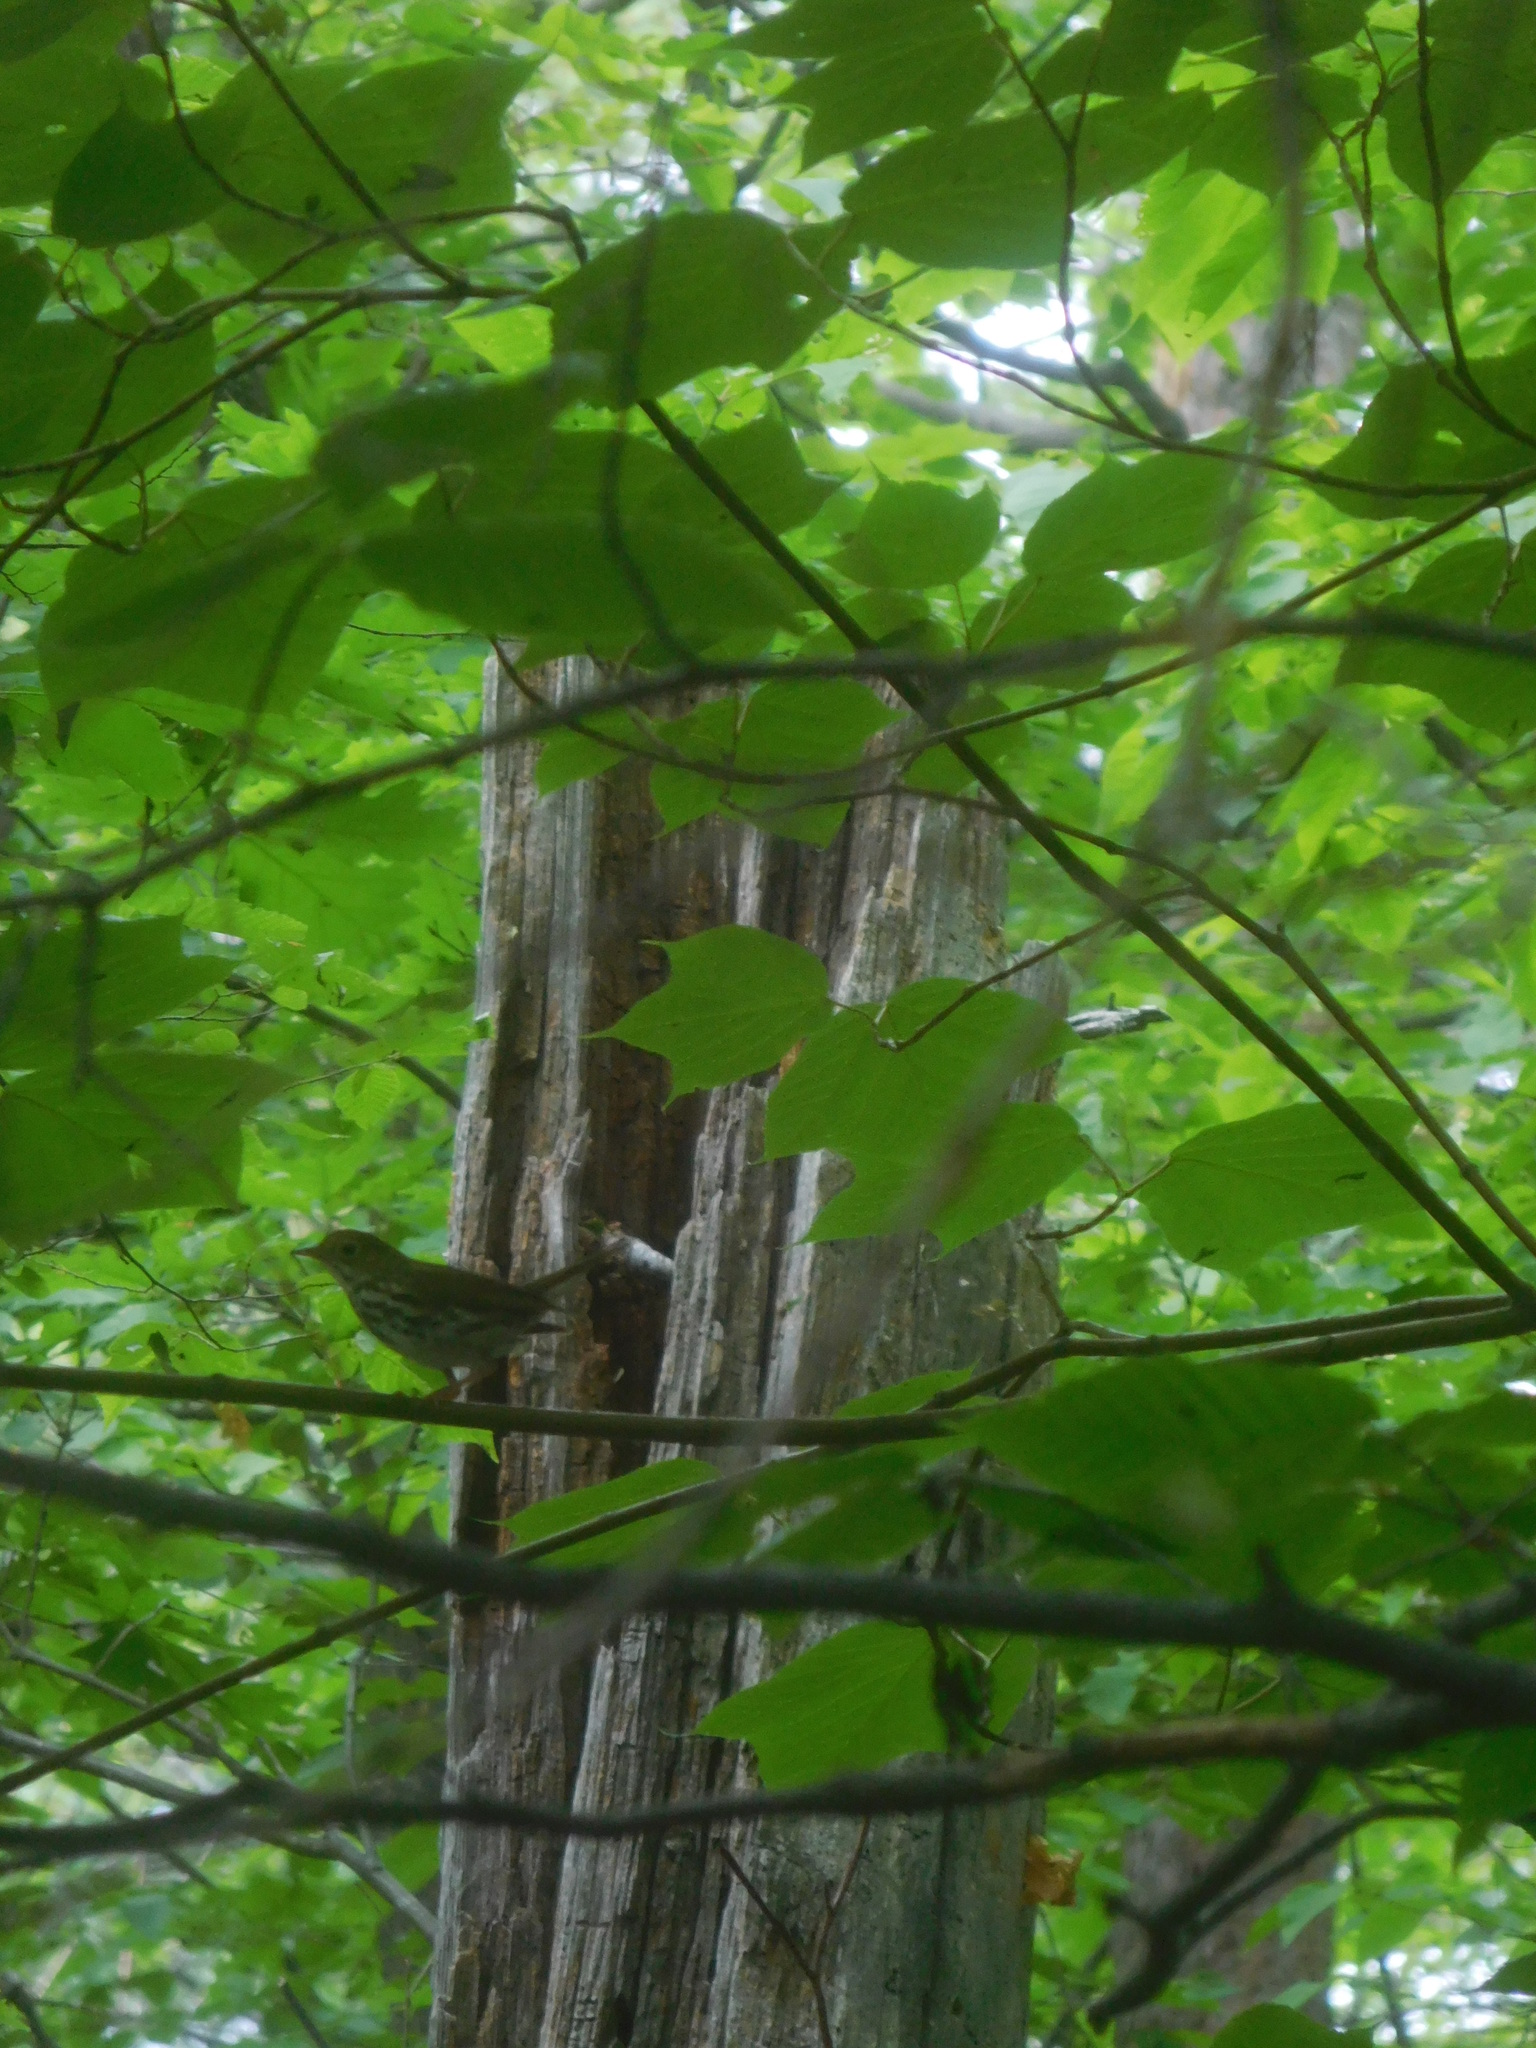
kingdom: Animalia
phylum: Chordata
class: Aves
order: Passeriformes
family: Parulidae
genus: Seiurus
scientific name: Seiurus aurocapilla
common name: Ovenbird
